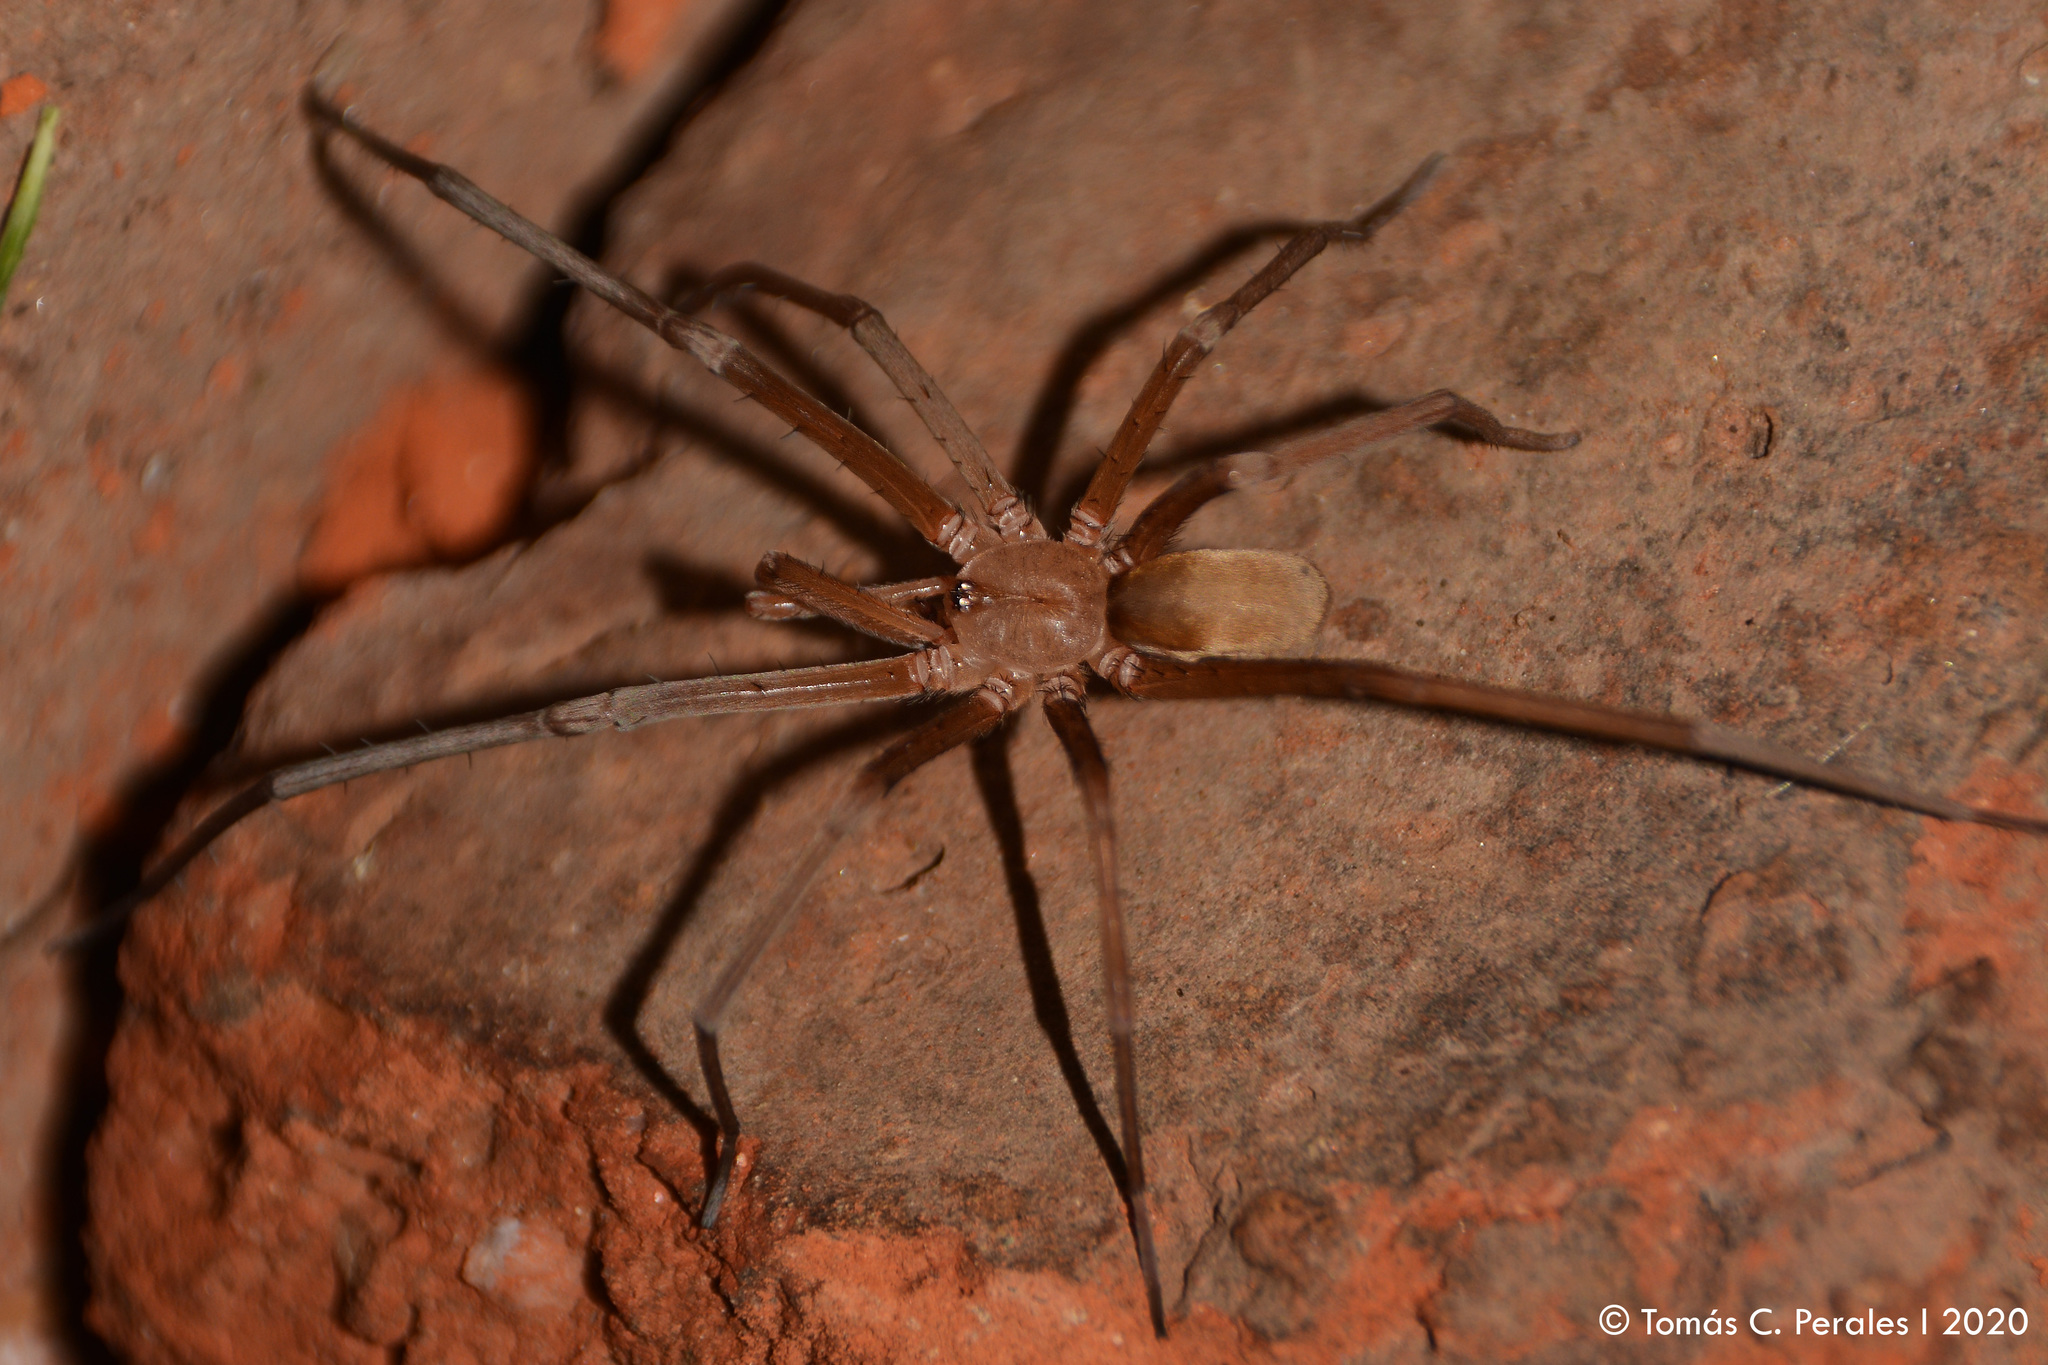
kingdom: Animalia
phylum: Arthropoda
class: Arachnida
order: Araneae
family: Filistatidae
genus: Kukulcania
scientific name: Kukulcania hibernalis
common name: Crevice weaver
